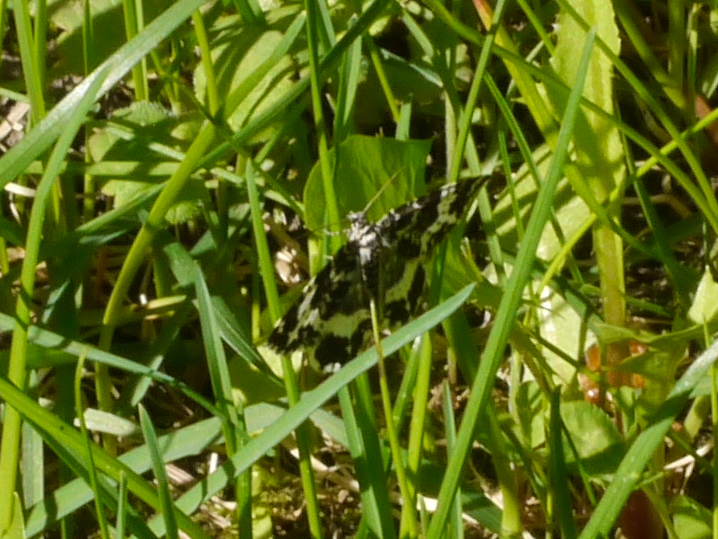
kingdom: Animalia
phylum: Arthropoda
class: Insecta
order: Lepidoptera
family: Geometridae
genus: Rheumaptera
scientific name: Rheumaptera
